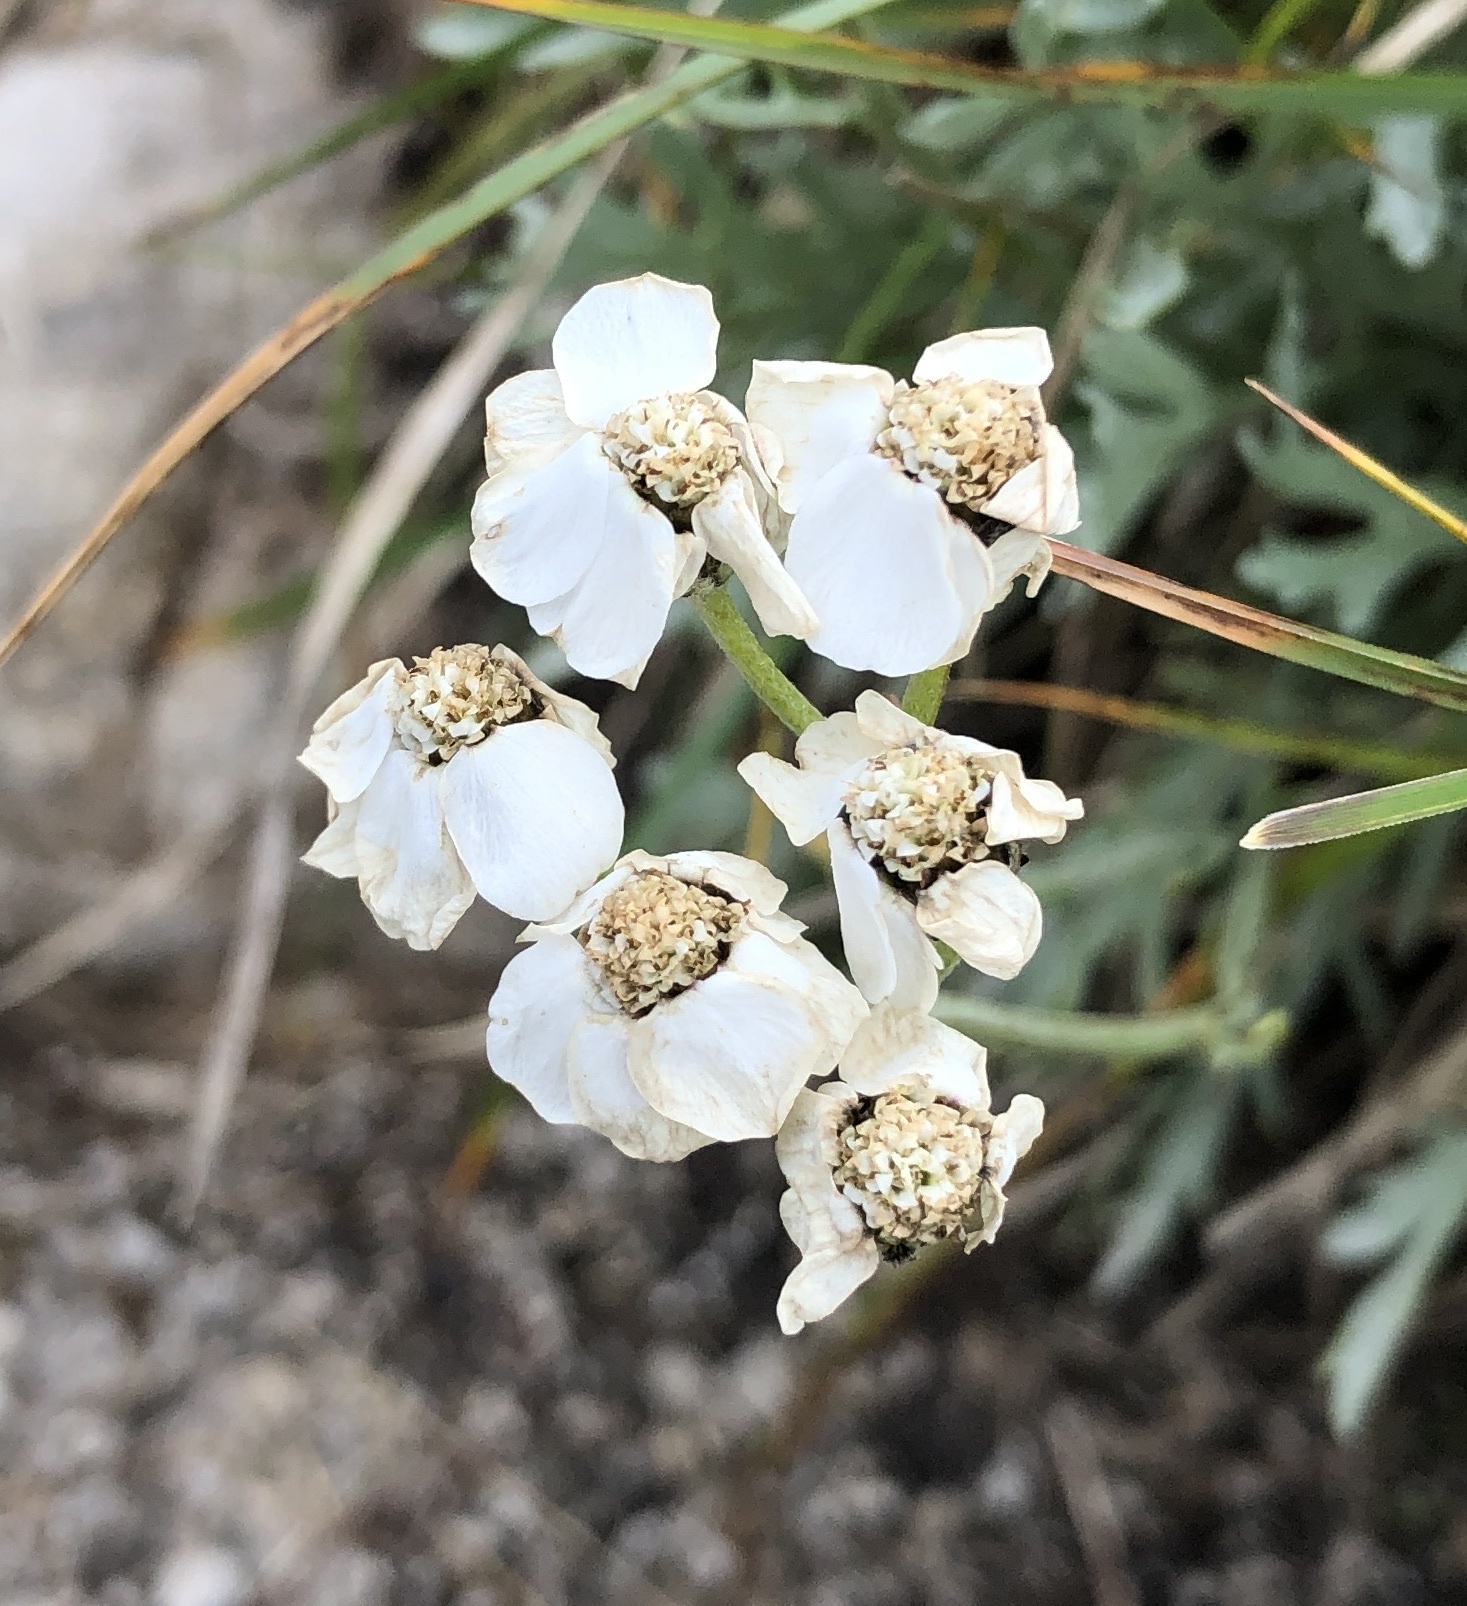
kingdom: Plantae
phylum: Tracheophyta
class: Magnoliopsida
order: Asterales
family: Asteraceae
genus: Achillea
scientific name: Achillea clavennae
